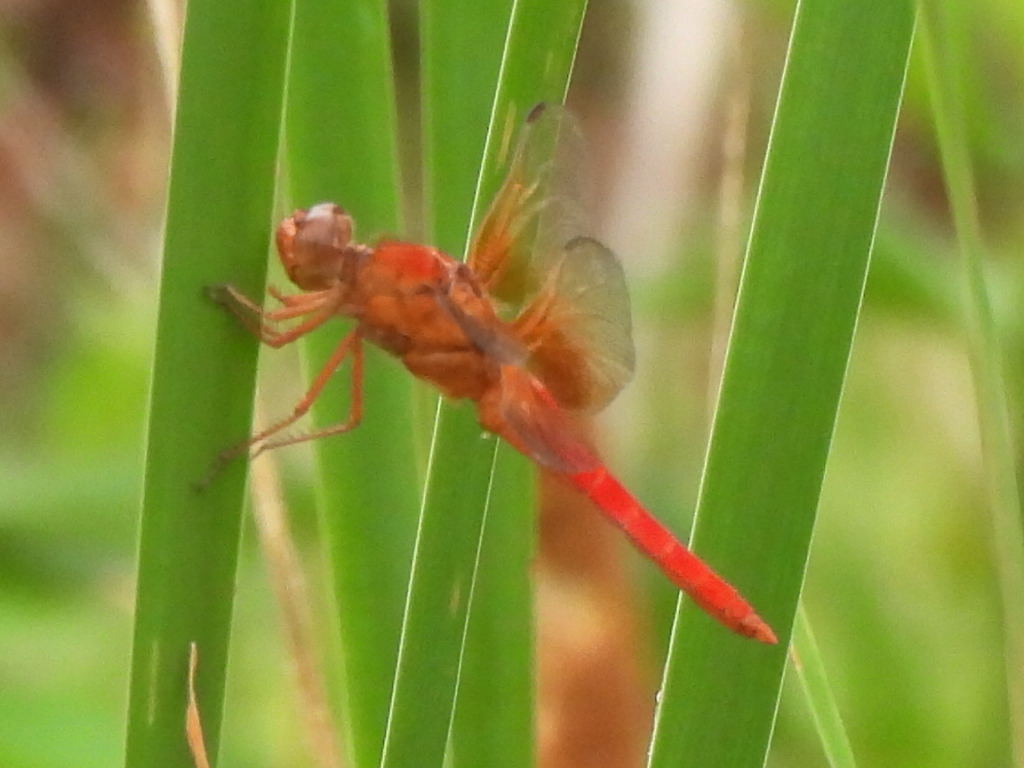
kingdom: Animalia
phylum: Arthropoda
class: Insecta
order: Odonata
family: Libellulidae
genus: Libellula
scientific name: Libellula croceipennis
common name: Neon skimmer
